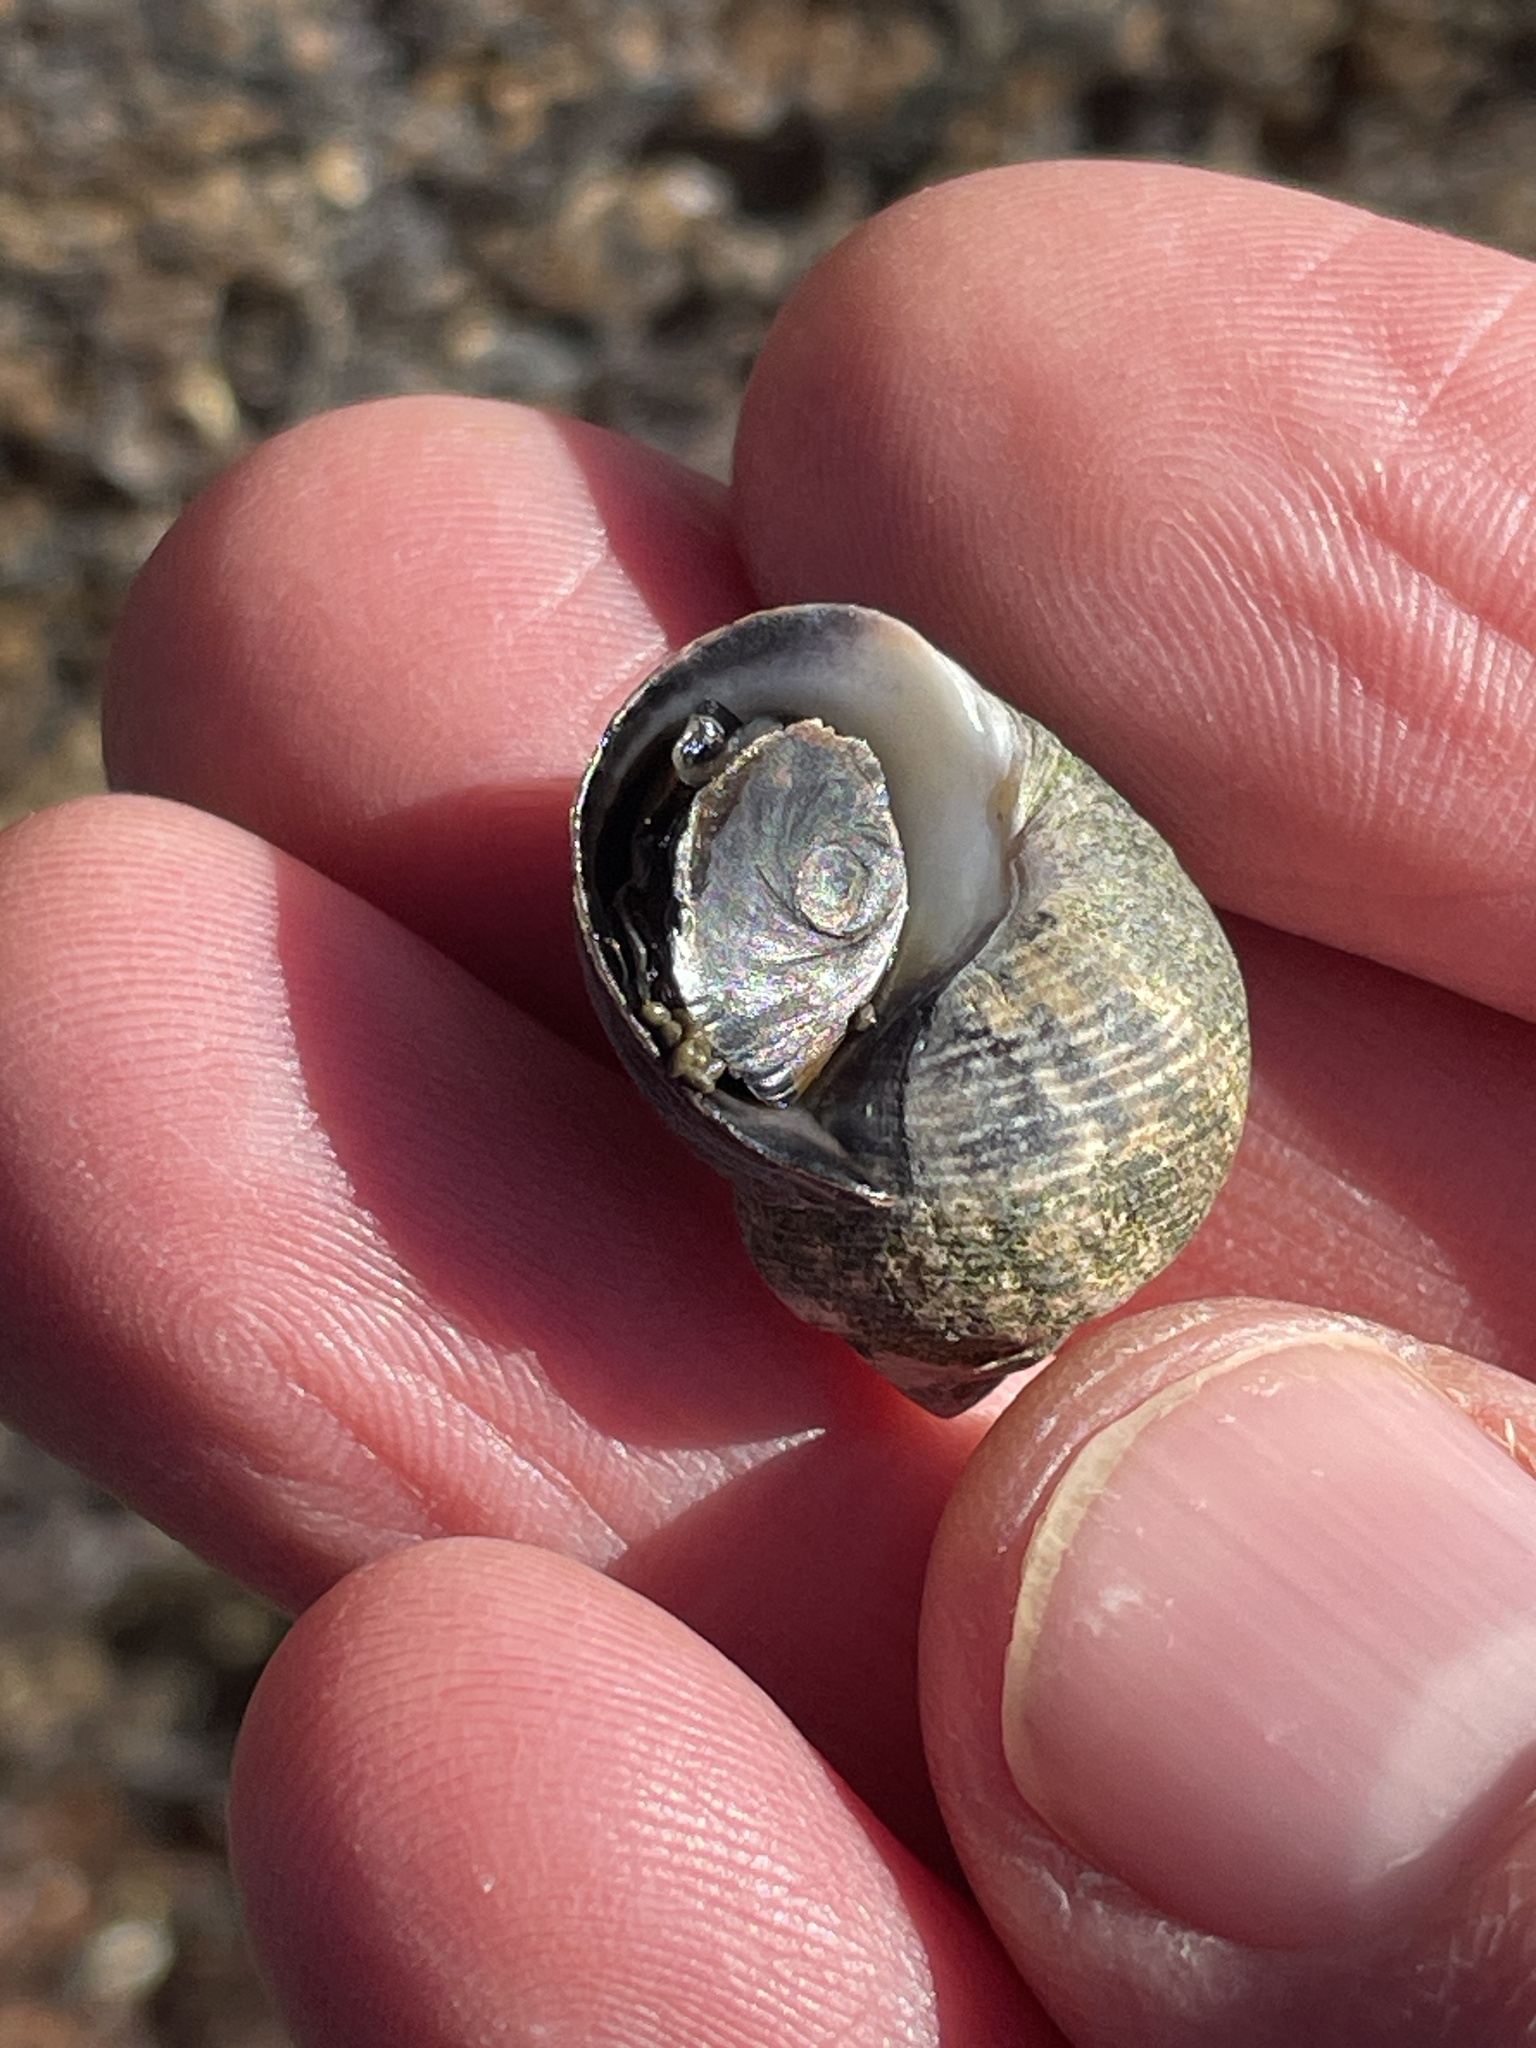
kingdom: Animalia
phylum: Mollusca
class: Gastropoda
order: Littorinimorpha
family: Littorinidae
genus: Littorina
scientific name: Littorina littorea
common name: Common periwinkle
